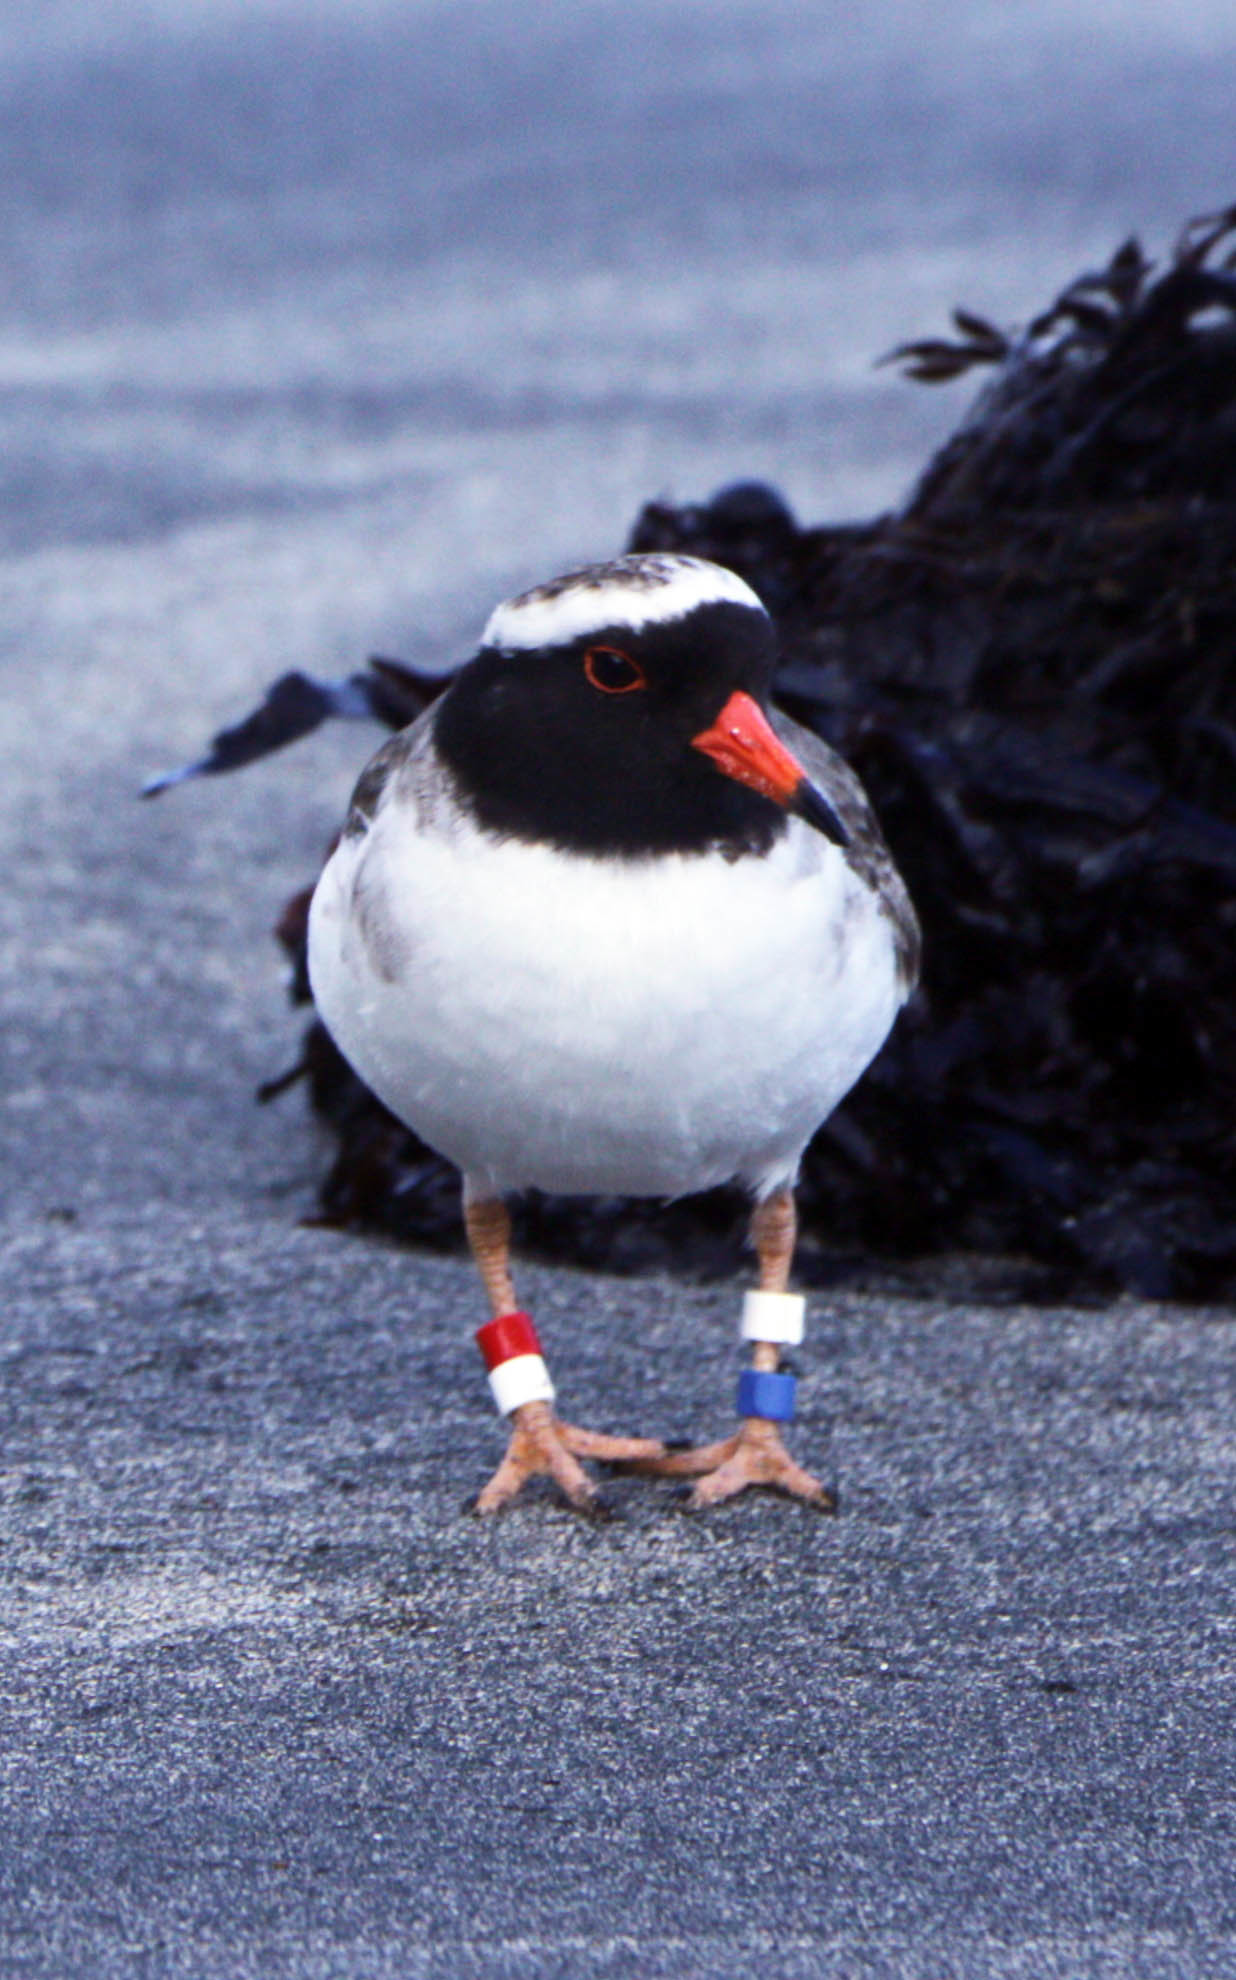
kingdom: Animalia
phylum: Chordata
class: Aves
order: Charadriiformes
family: Charadriidae
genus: Thinornis
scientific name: Thinornis novaeseelandiae
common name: Shore dotterel
